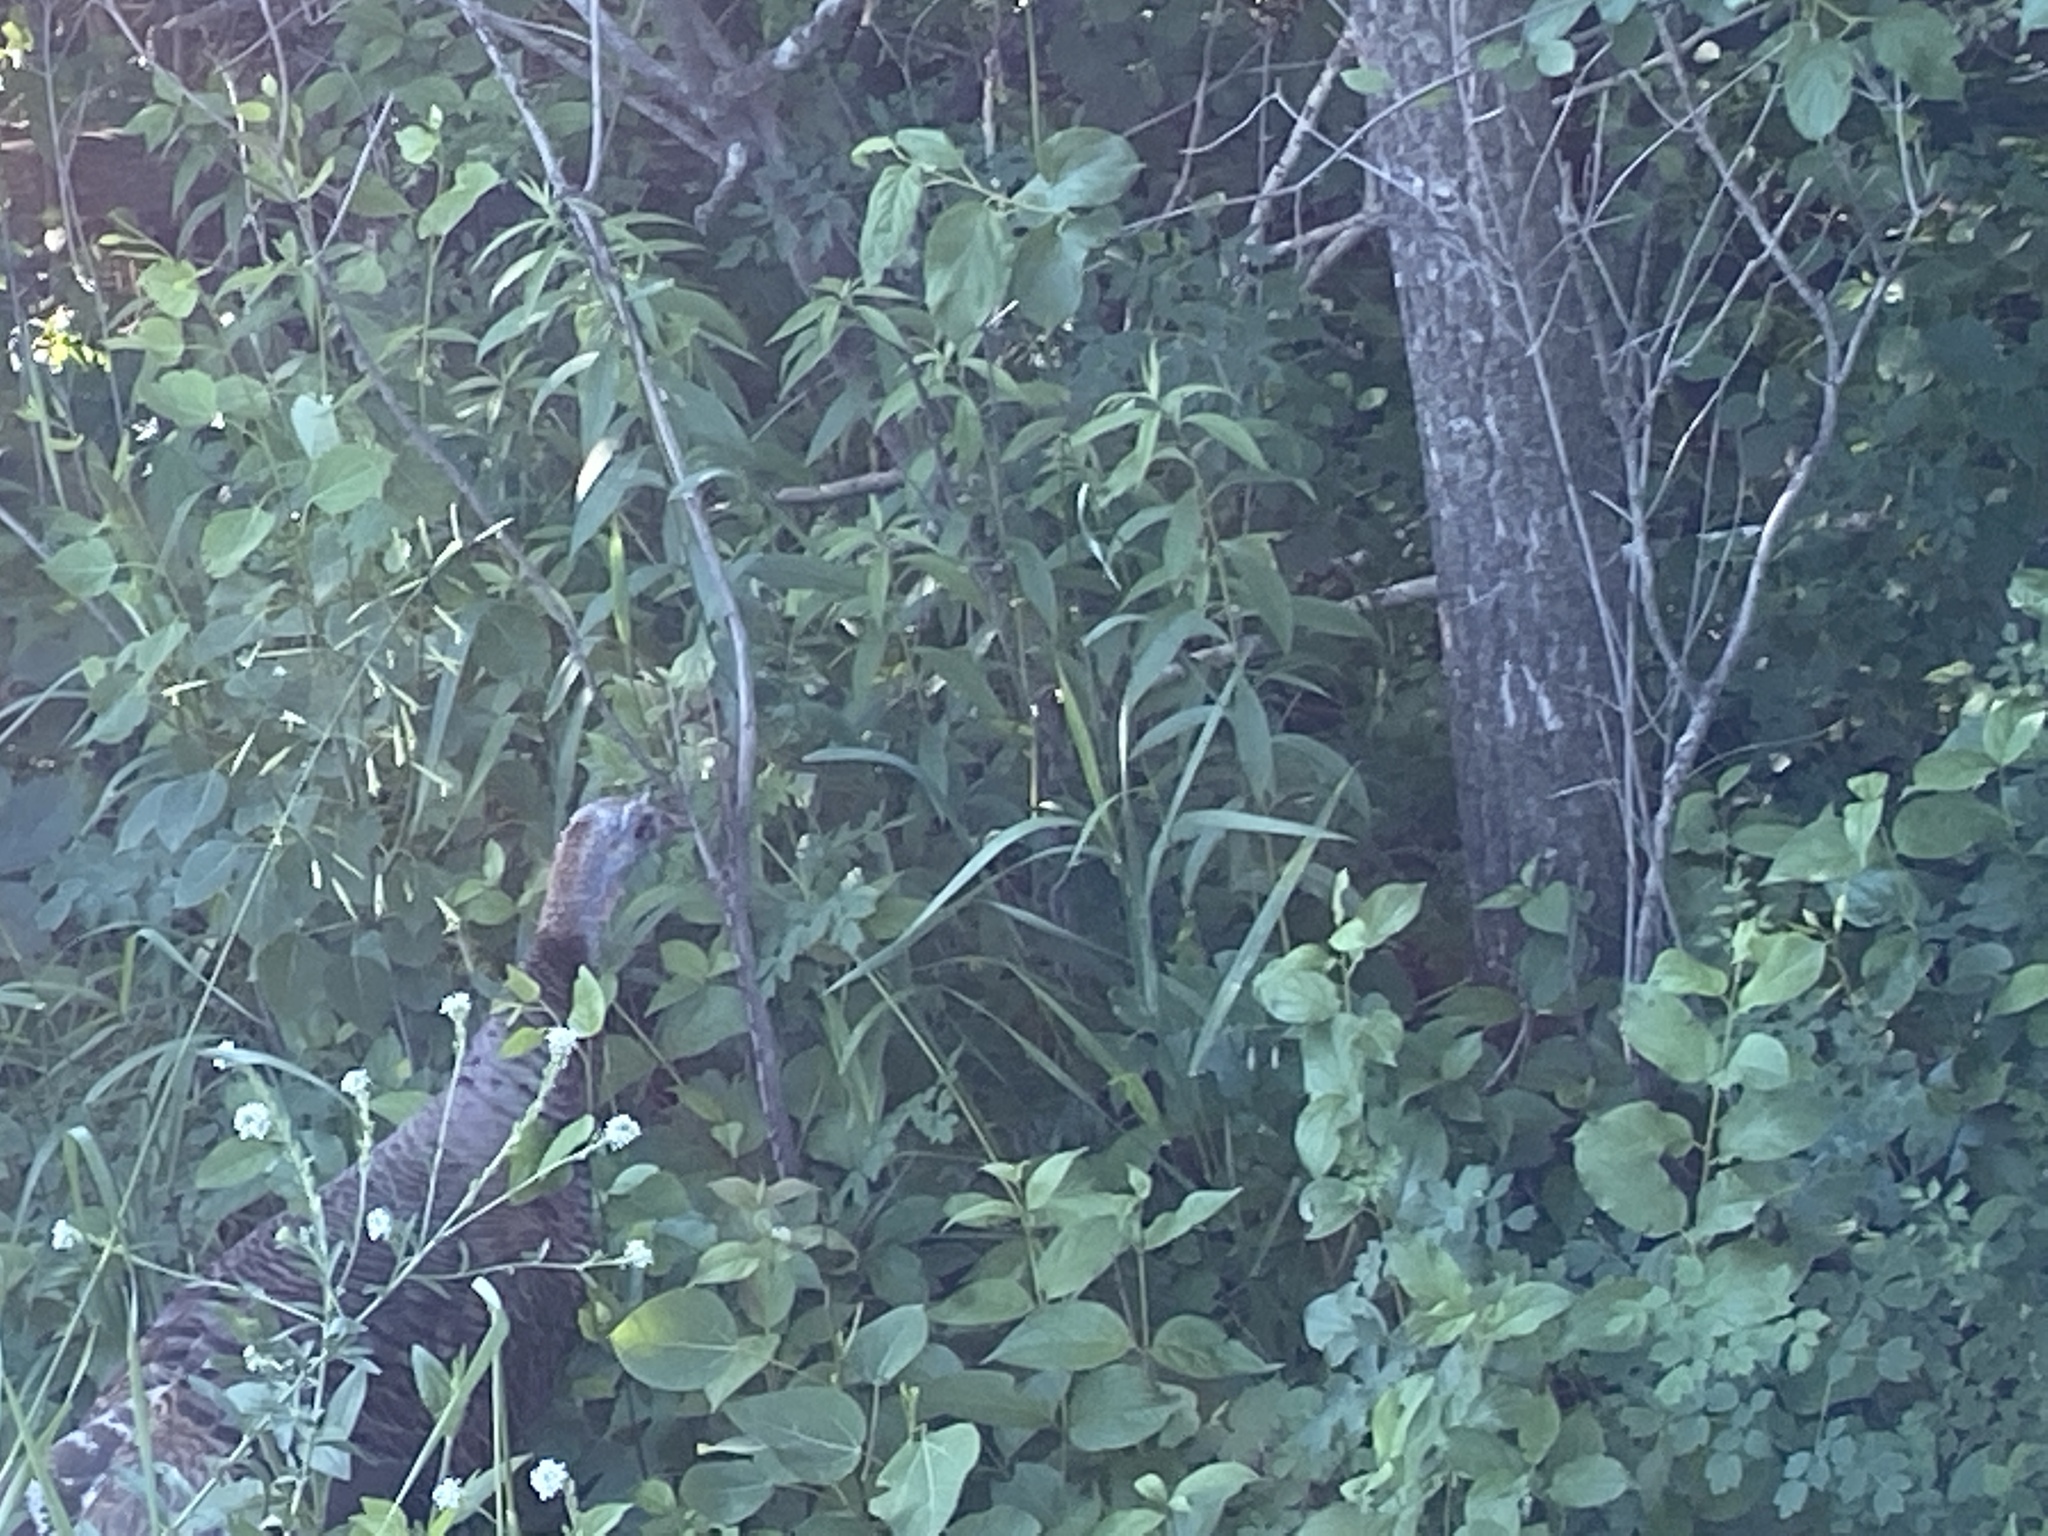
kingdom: Animalia
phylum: Chordata
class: Aves
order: Galliformes
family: Phasianidae
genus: Meleagris
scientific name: Meleagris gallopavo
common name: Wild turkey
